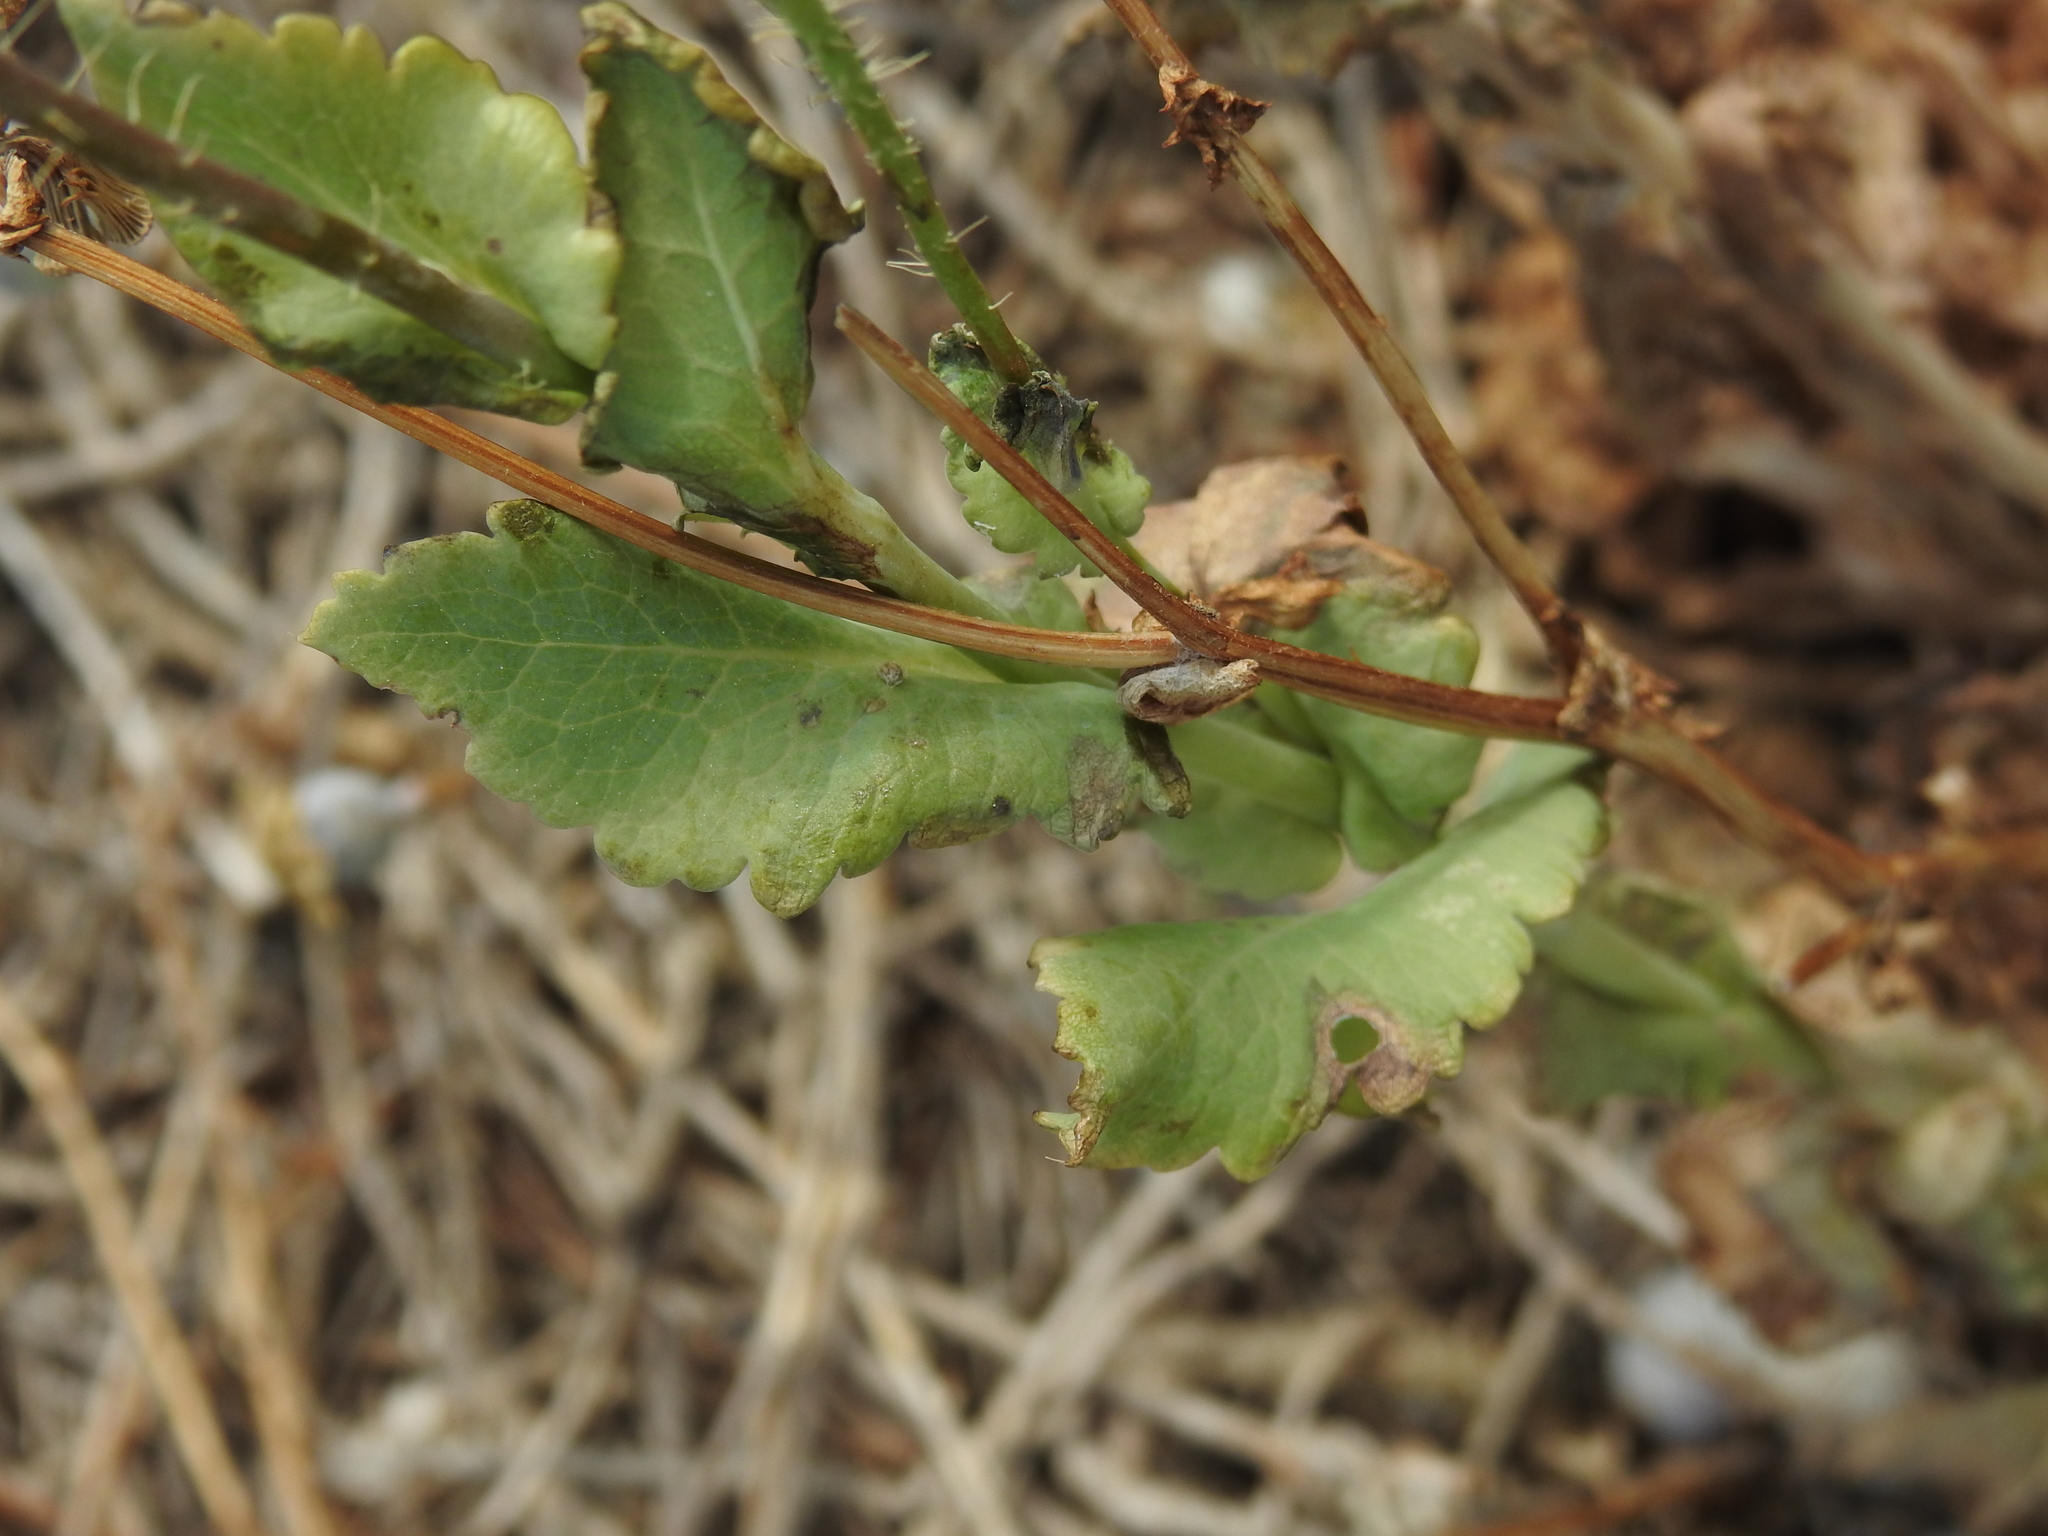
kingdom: Plantae
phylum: Tracheophyta
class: Magnoliopsida
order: Ranunculales
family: Papaveraceae
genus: Papaver
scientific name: Papaver somniferum
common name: Opium poppy
